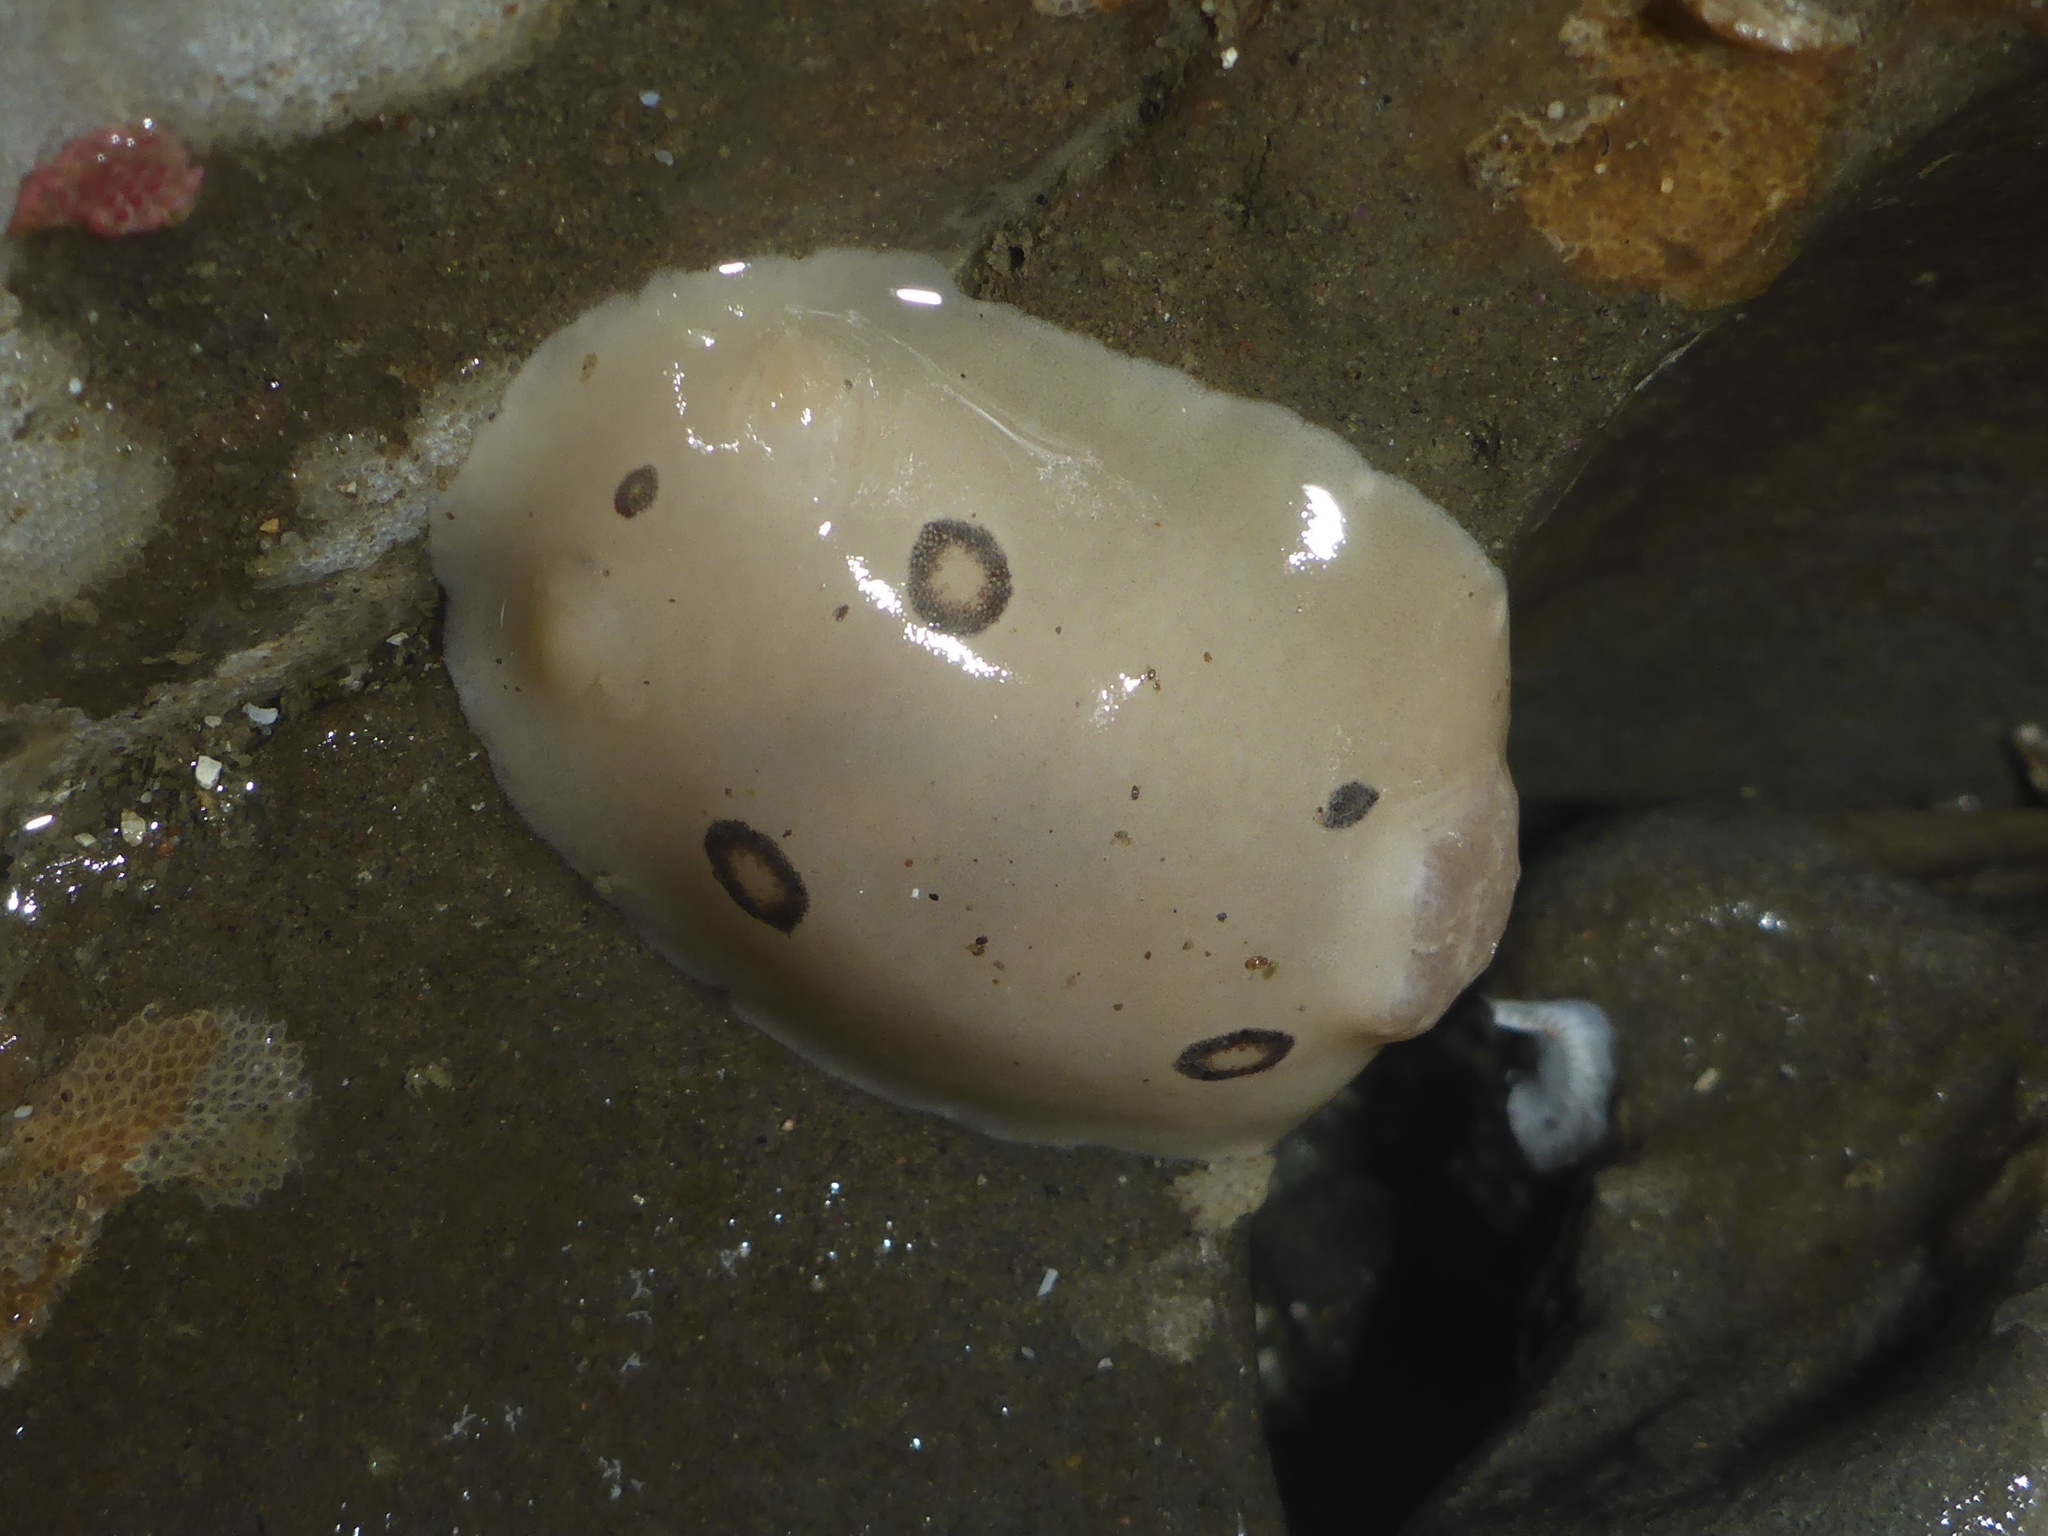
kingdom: Animalia
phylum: Mollusca
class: Gastropoda
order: Nudibranchia
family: Discodorididae
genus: Diaulula
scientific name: Diaulula sandiegensis
